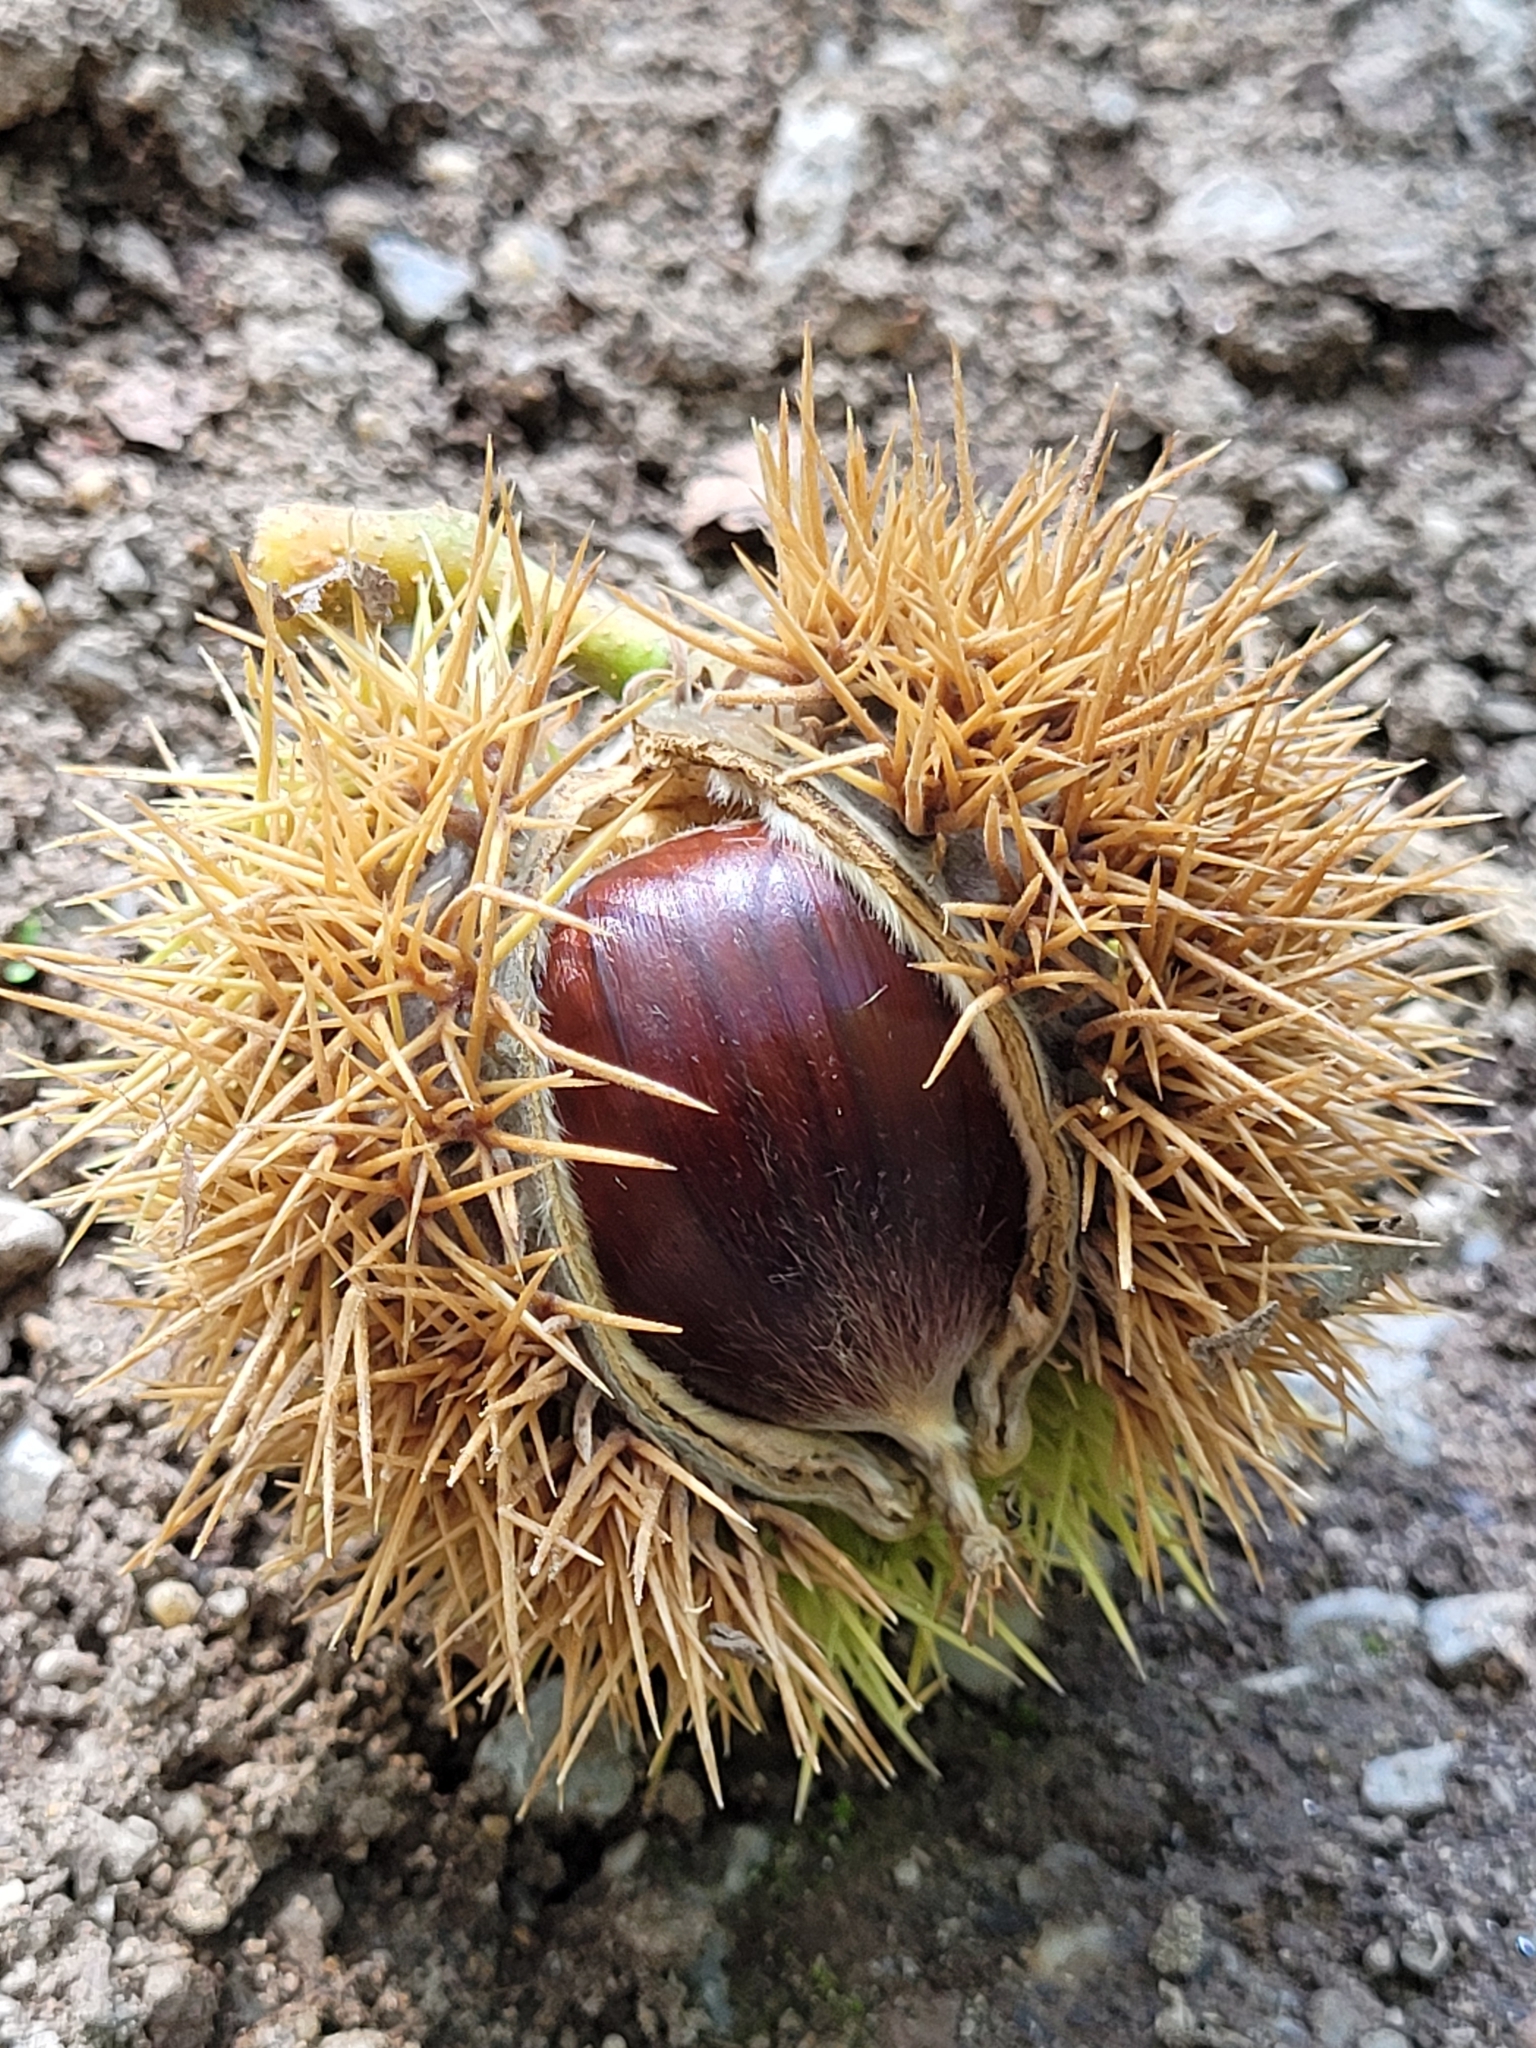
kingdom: Plantae
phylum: Tracheophyta
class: Magnoliopsida
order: Fagales
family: Fagaceae
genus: Castanea
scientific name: Castanea sativa
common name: Sweet chestnut
